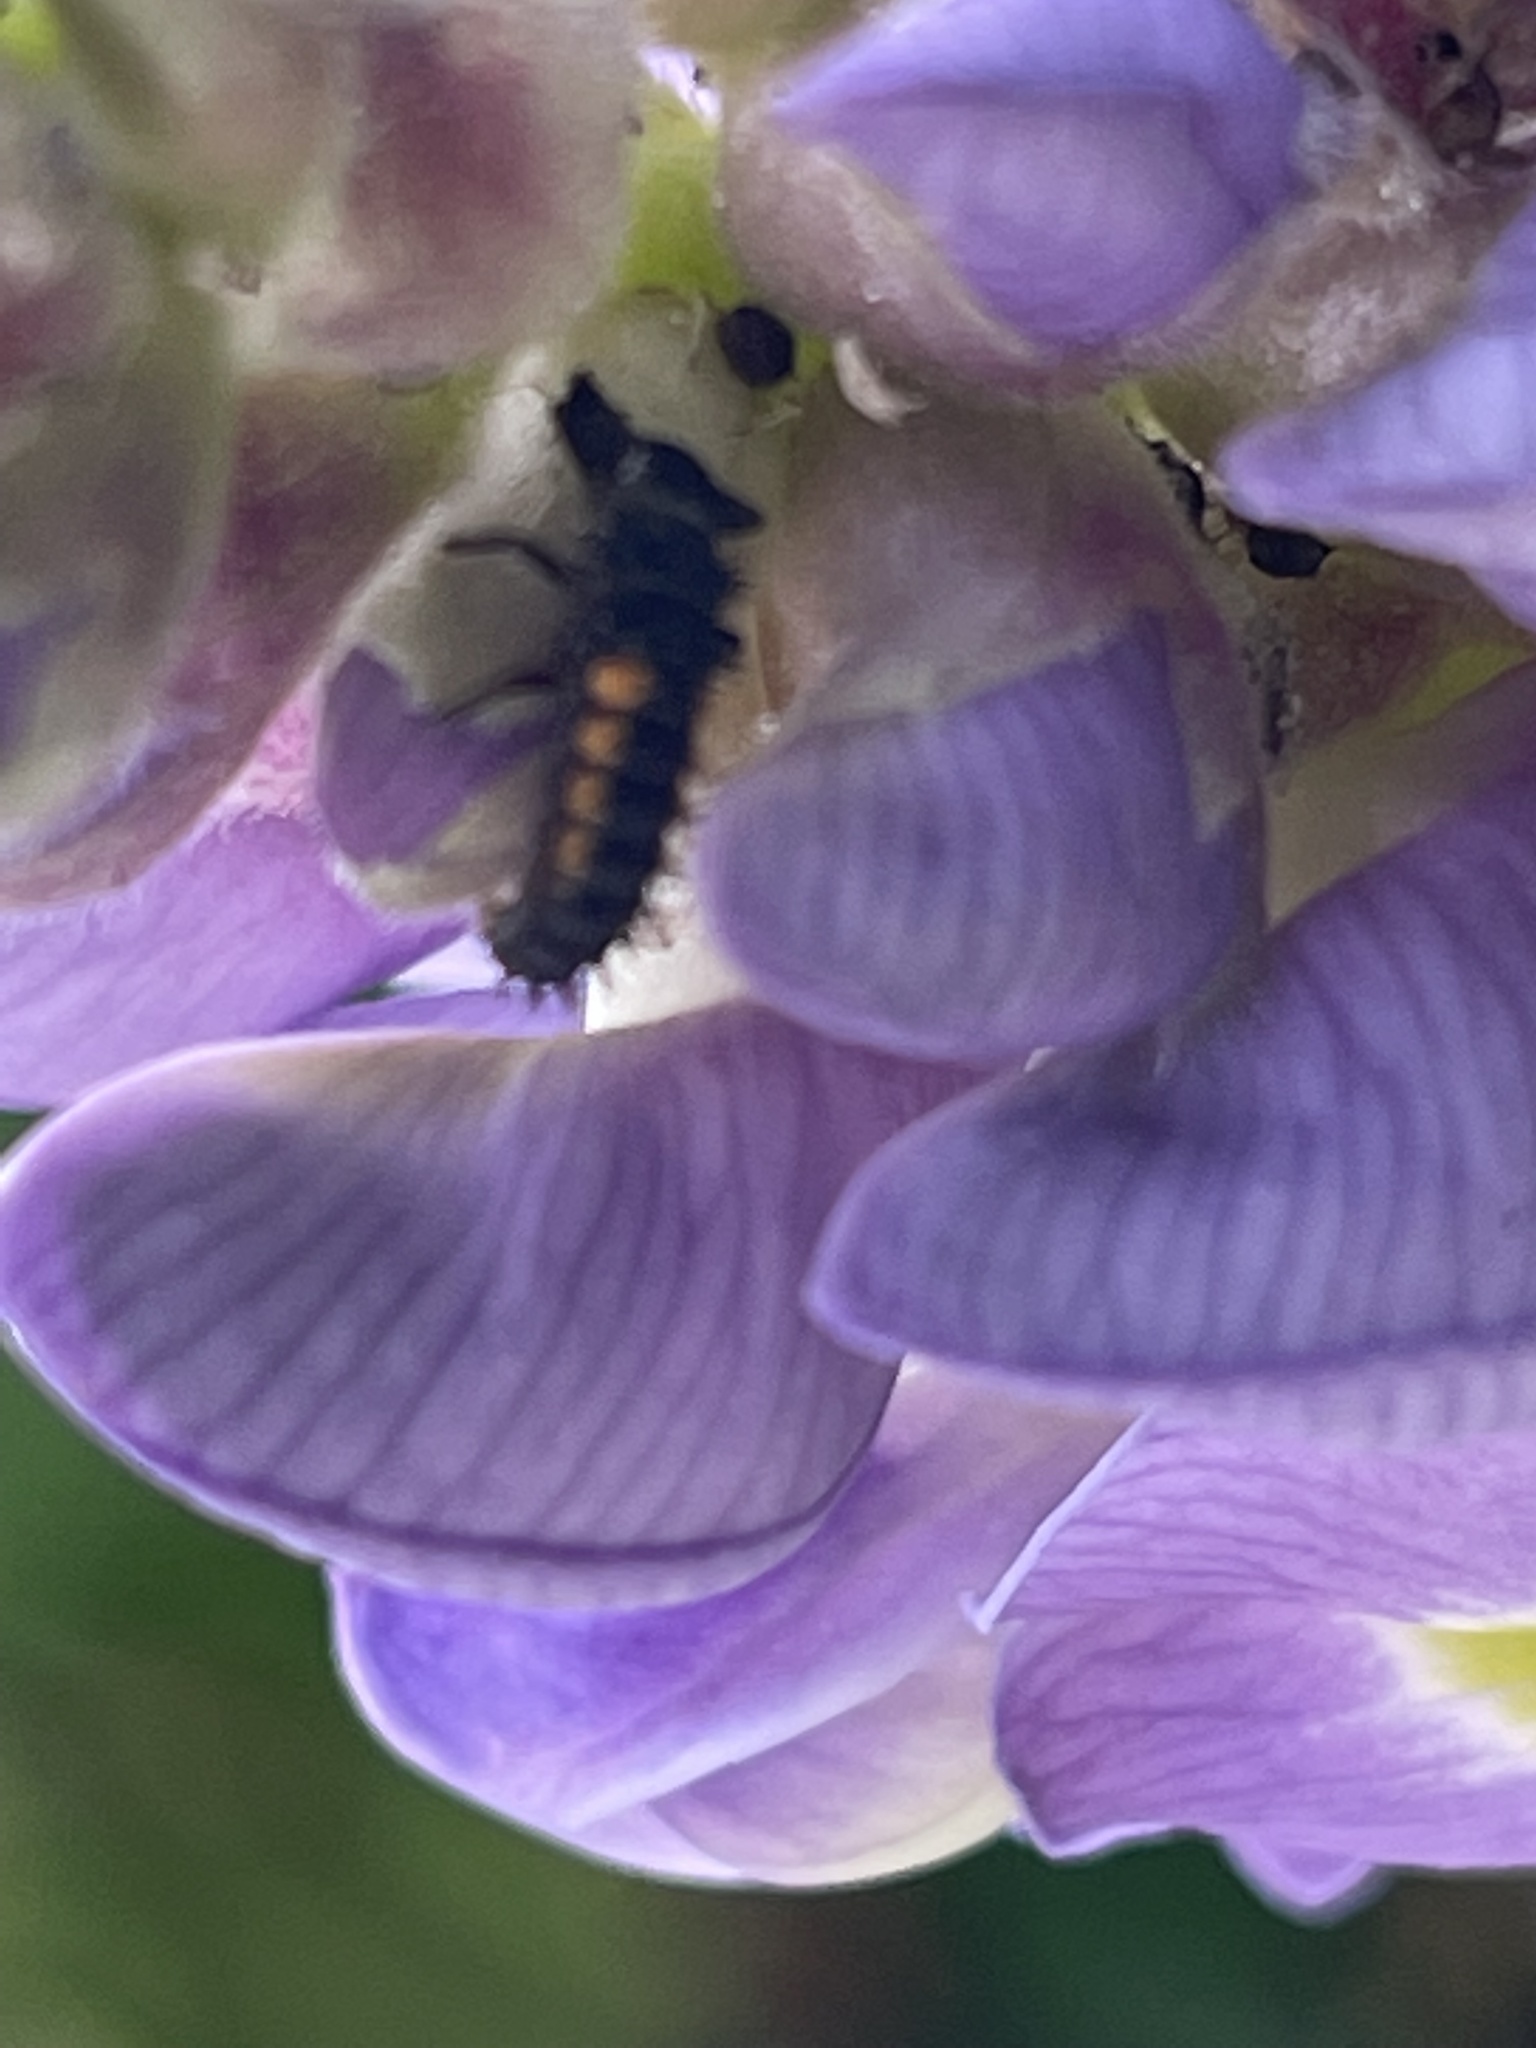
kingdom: Animalia
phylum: Arthropoda
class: Insecta
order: Coleoptera
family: Coccinellidae
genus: Harmonia
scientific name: Harmonia axyridis
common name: Harlequin ladybird
